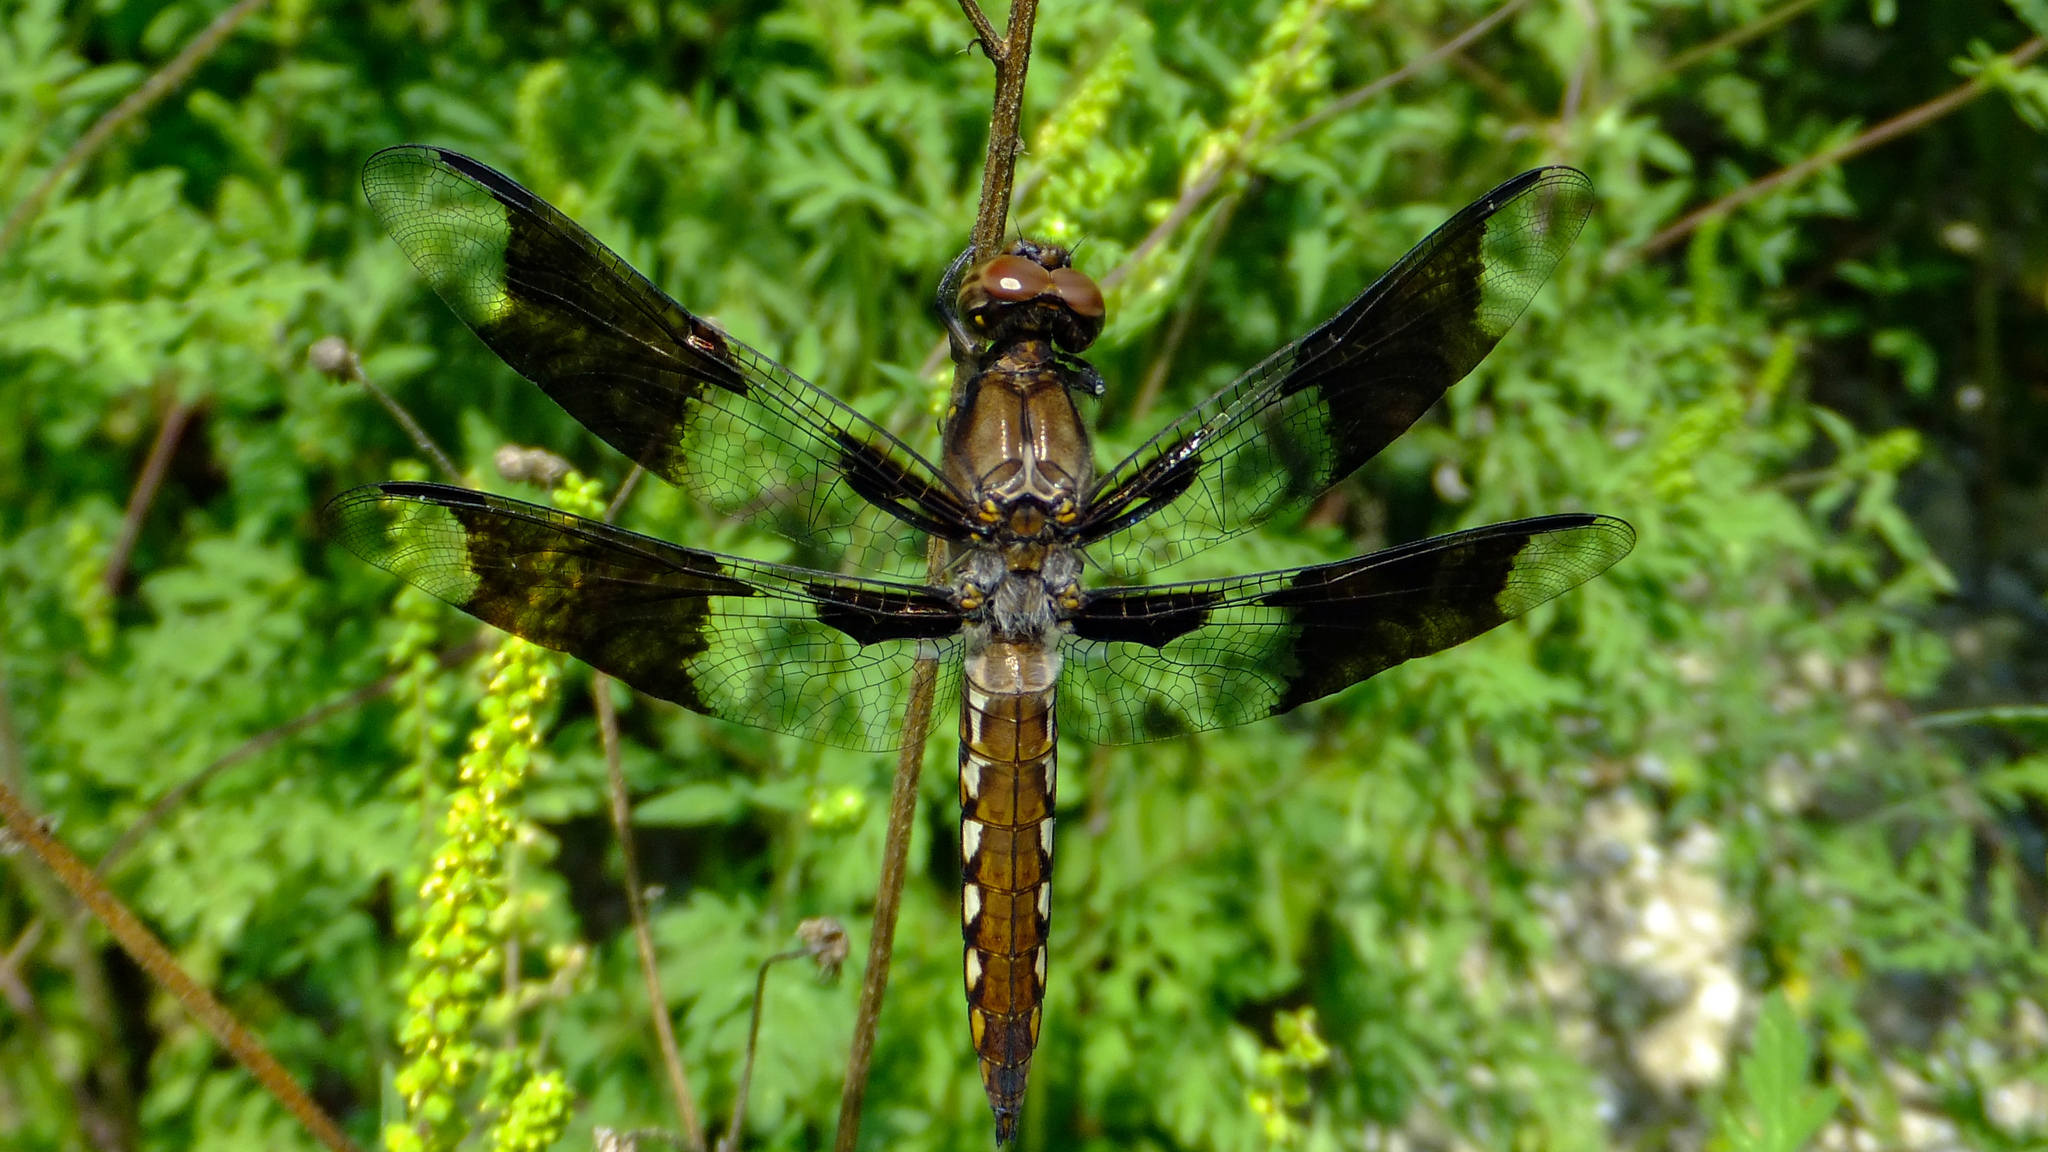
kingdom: Animalia
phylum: Arthropoda
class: Insecta
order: Odonata
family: Libellulidae
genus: Plathemis
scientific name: Plathemis lydia
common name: Common whitetail
